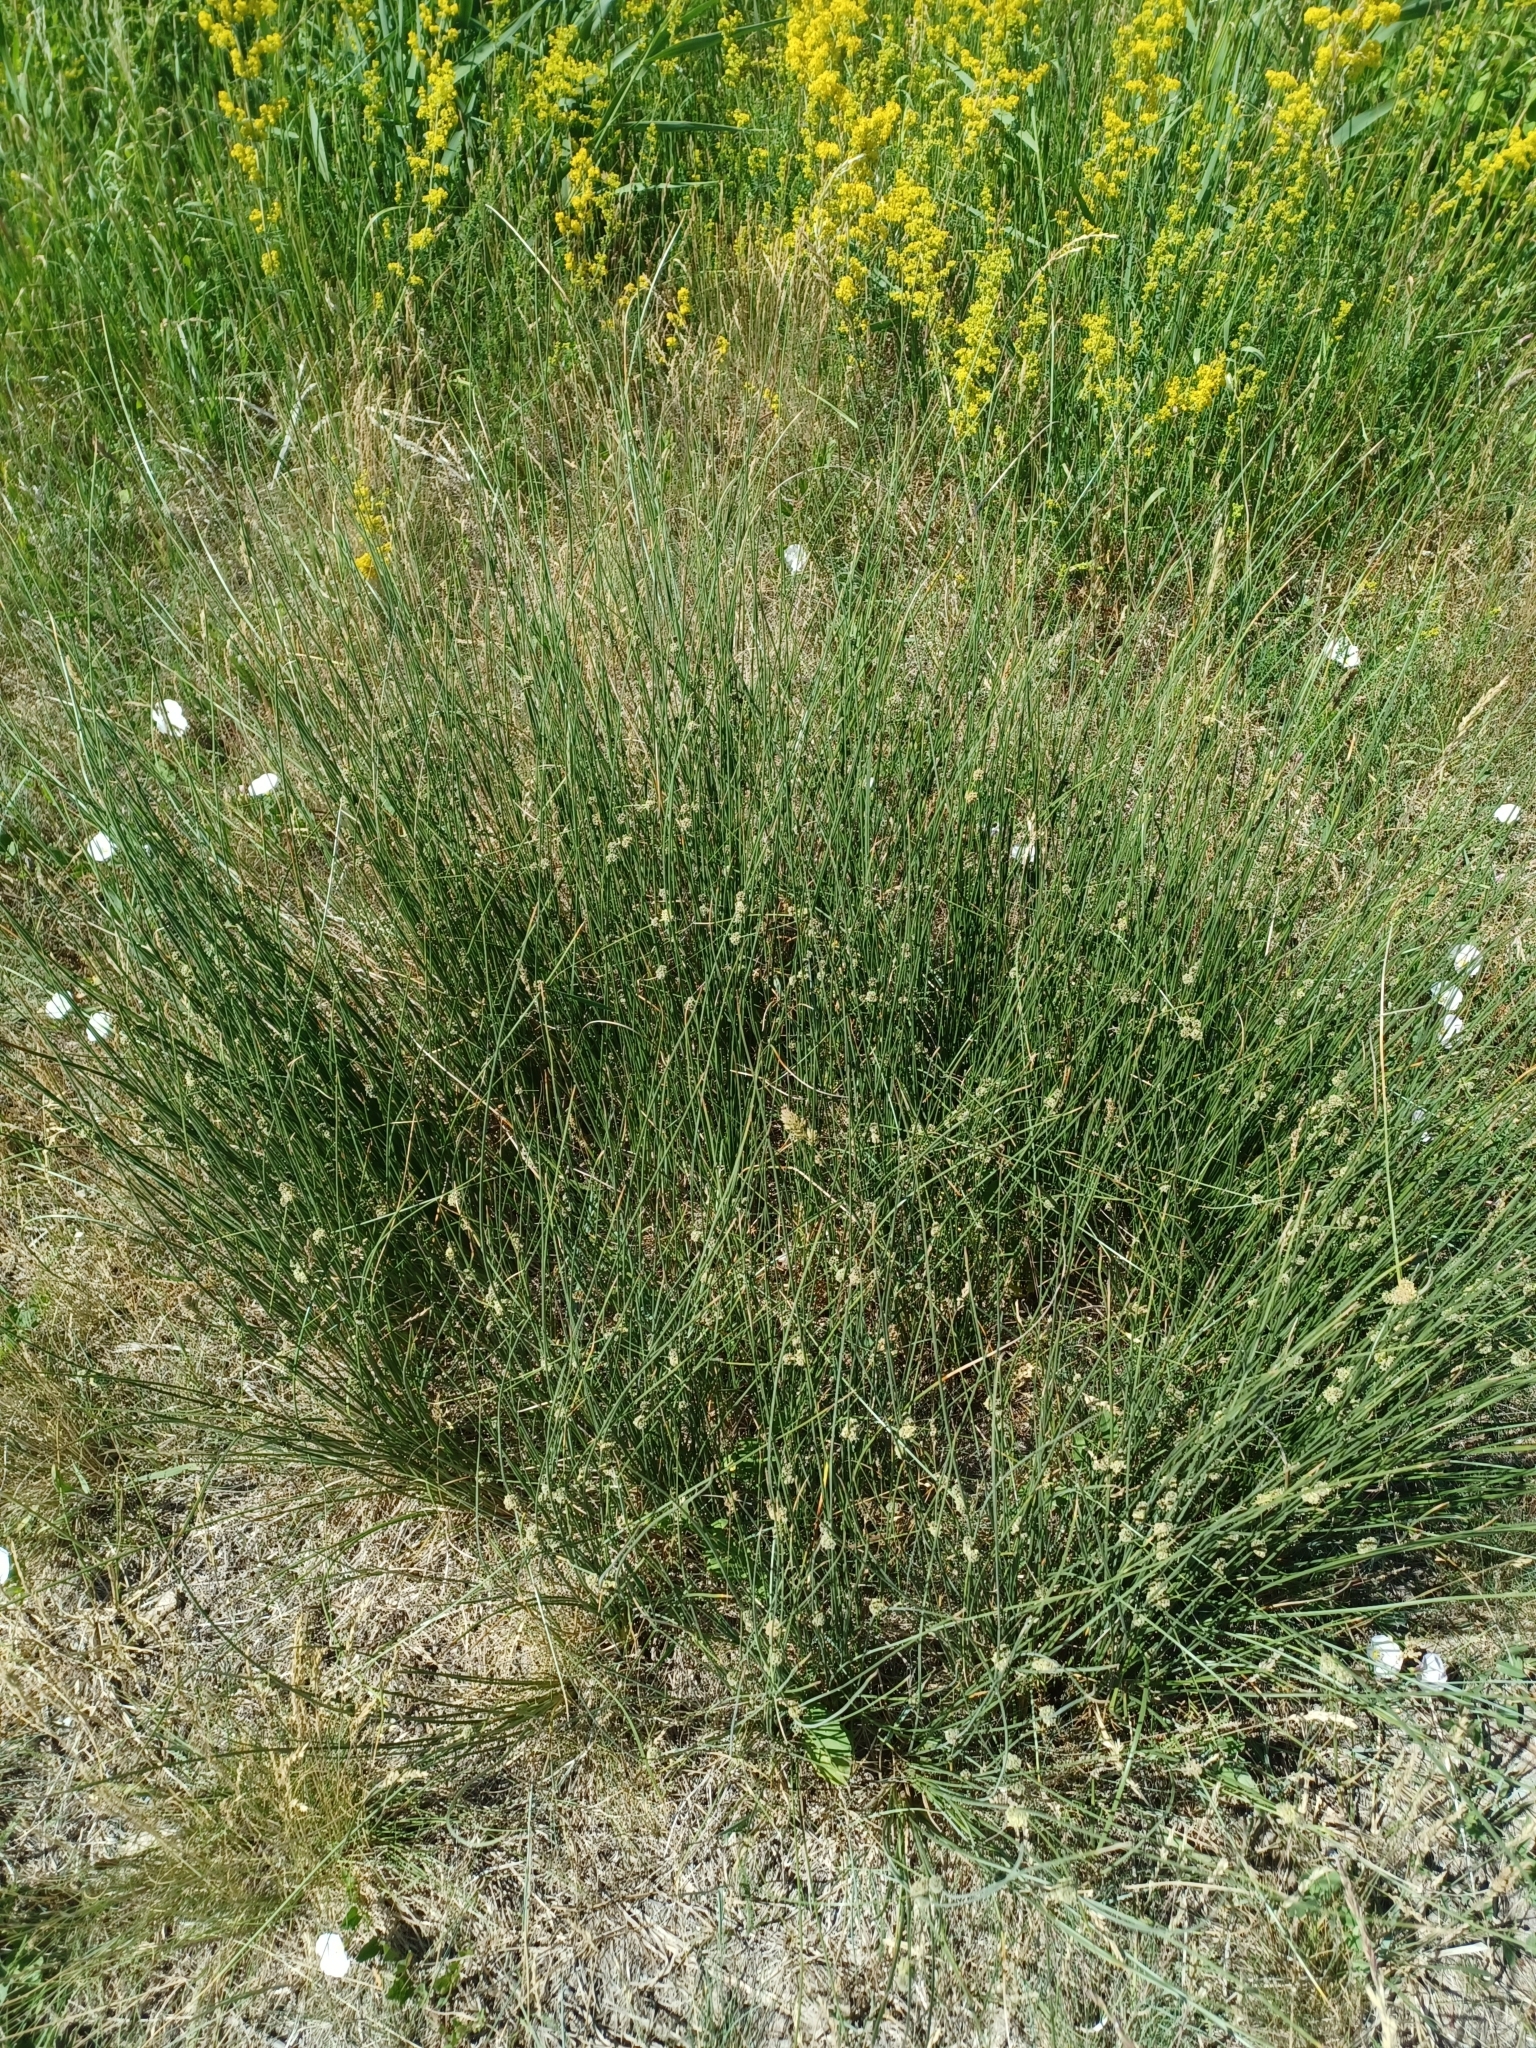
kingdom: Plantae
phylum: Tracheophyta
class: Liliopsida
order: Poales
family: Cyperaceae
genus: Scirpoides
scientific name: Scirpoides holoschoenus
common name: Round-headed club-rush
